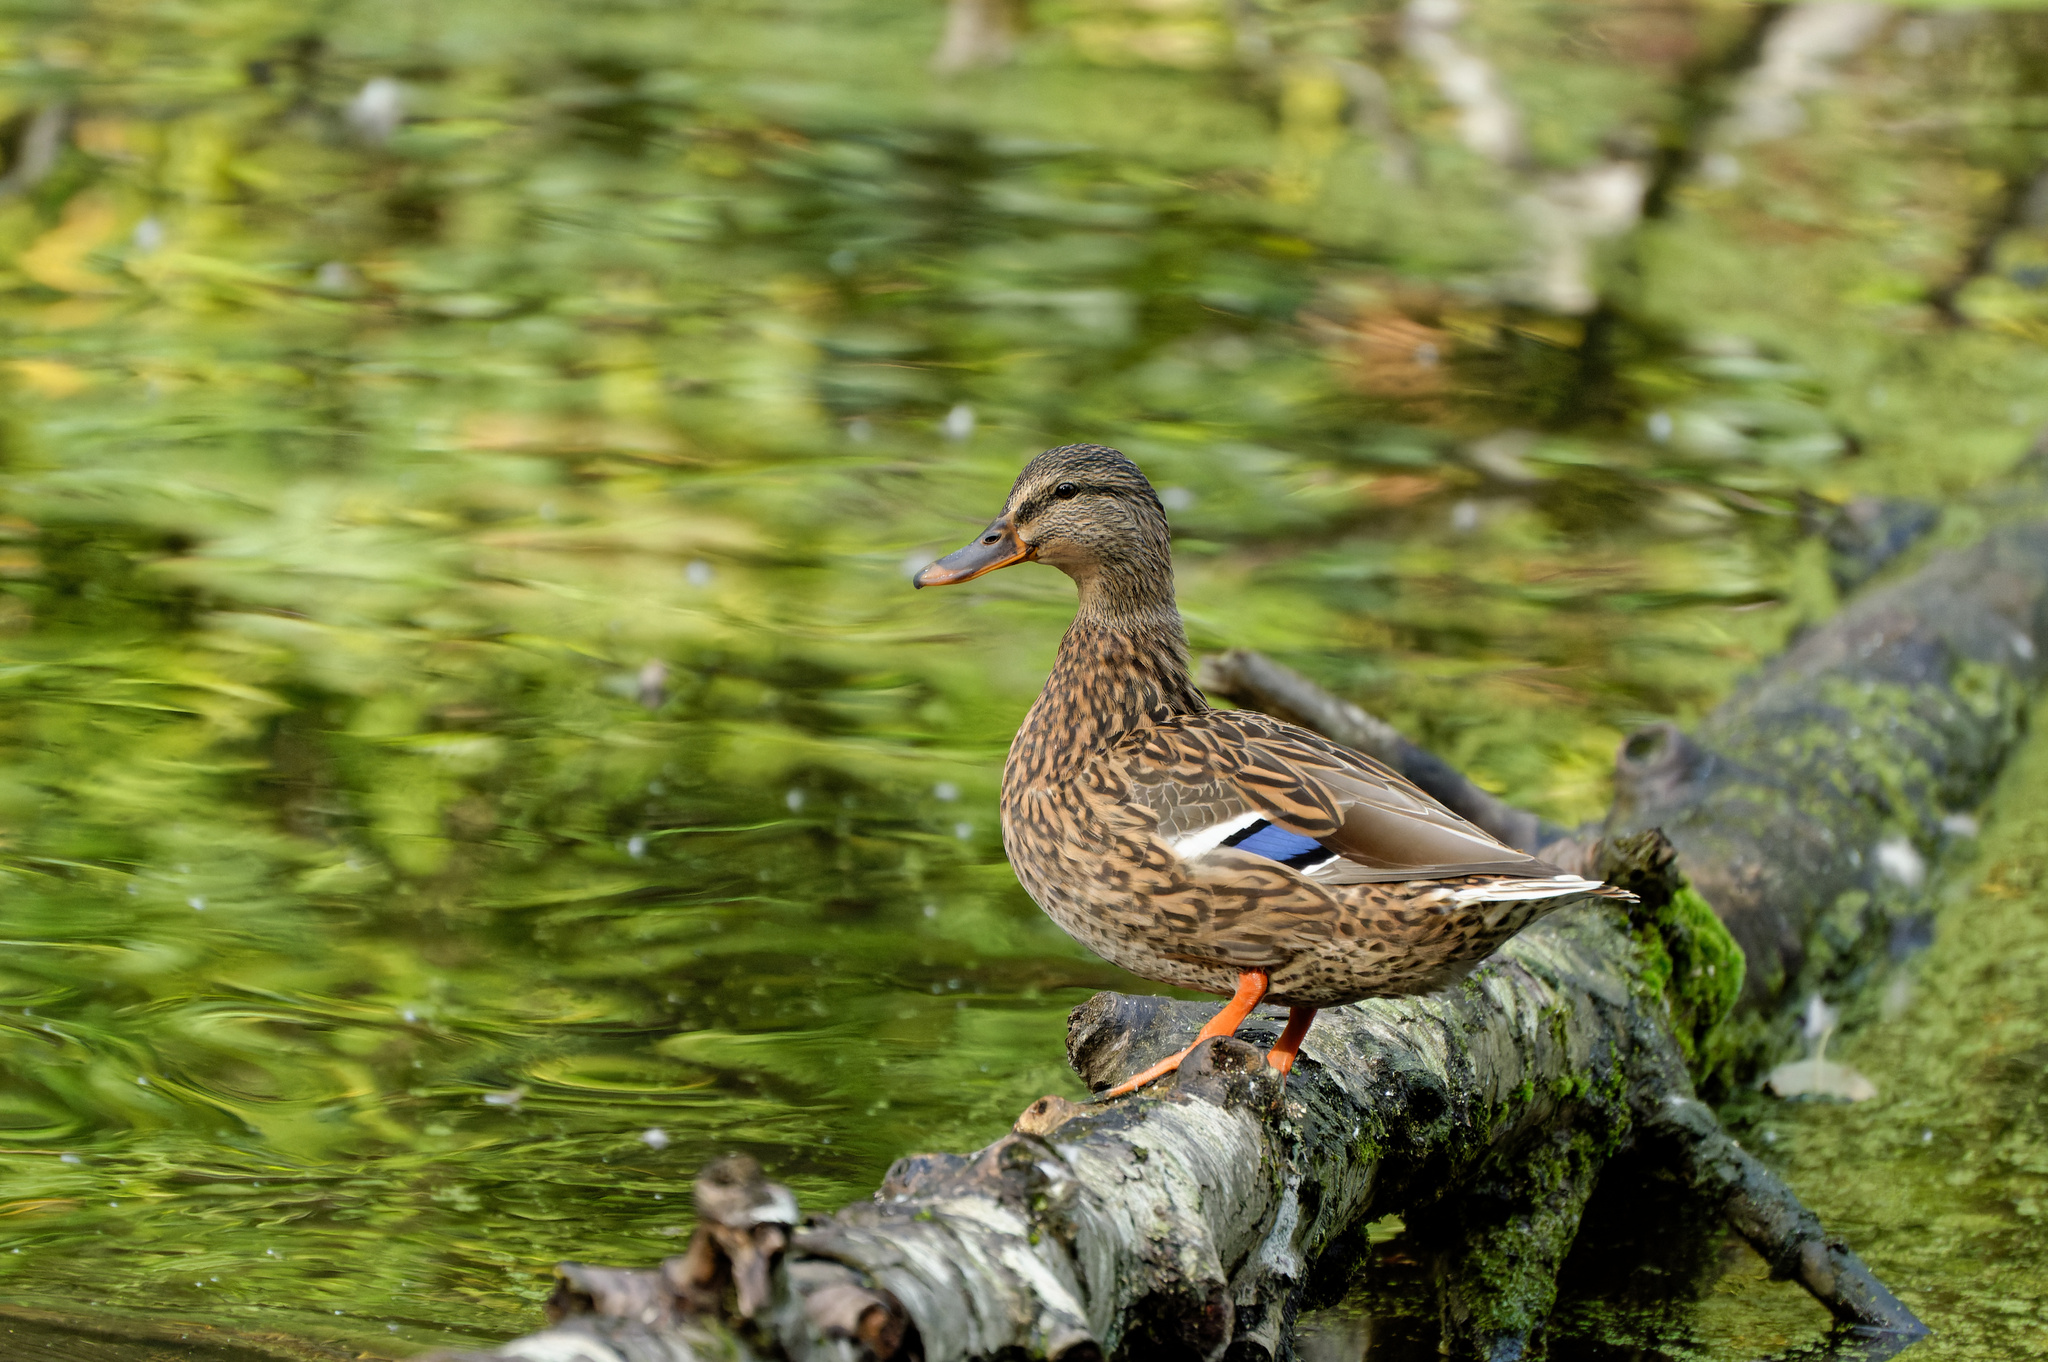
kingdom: Animalia
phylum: Chordata
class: Aves
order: Anseriformes
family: Anatidae
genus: Anas
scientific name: Anas platyrhynchos
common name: Mallard
